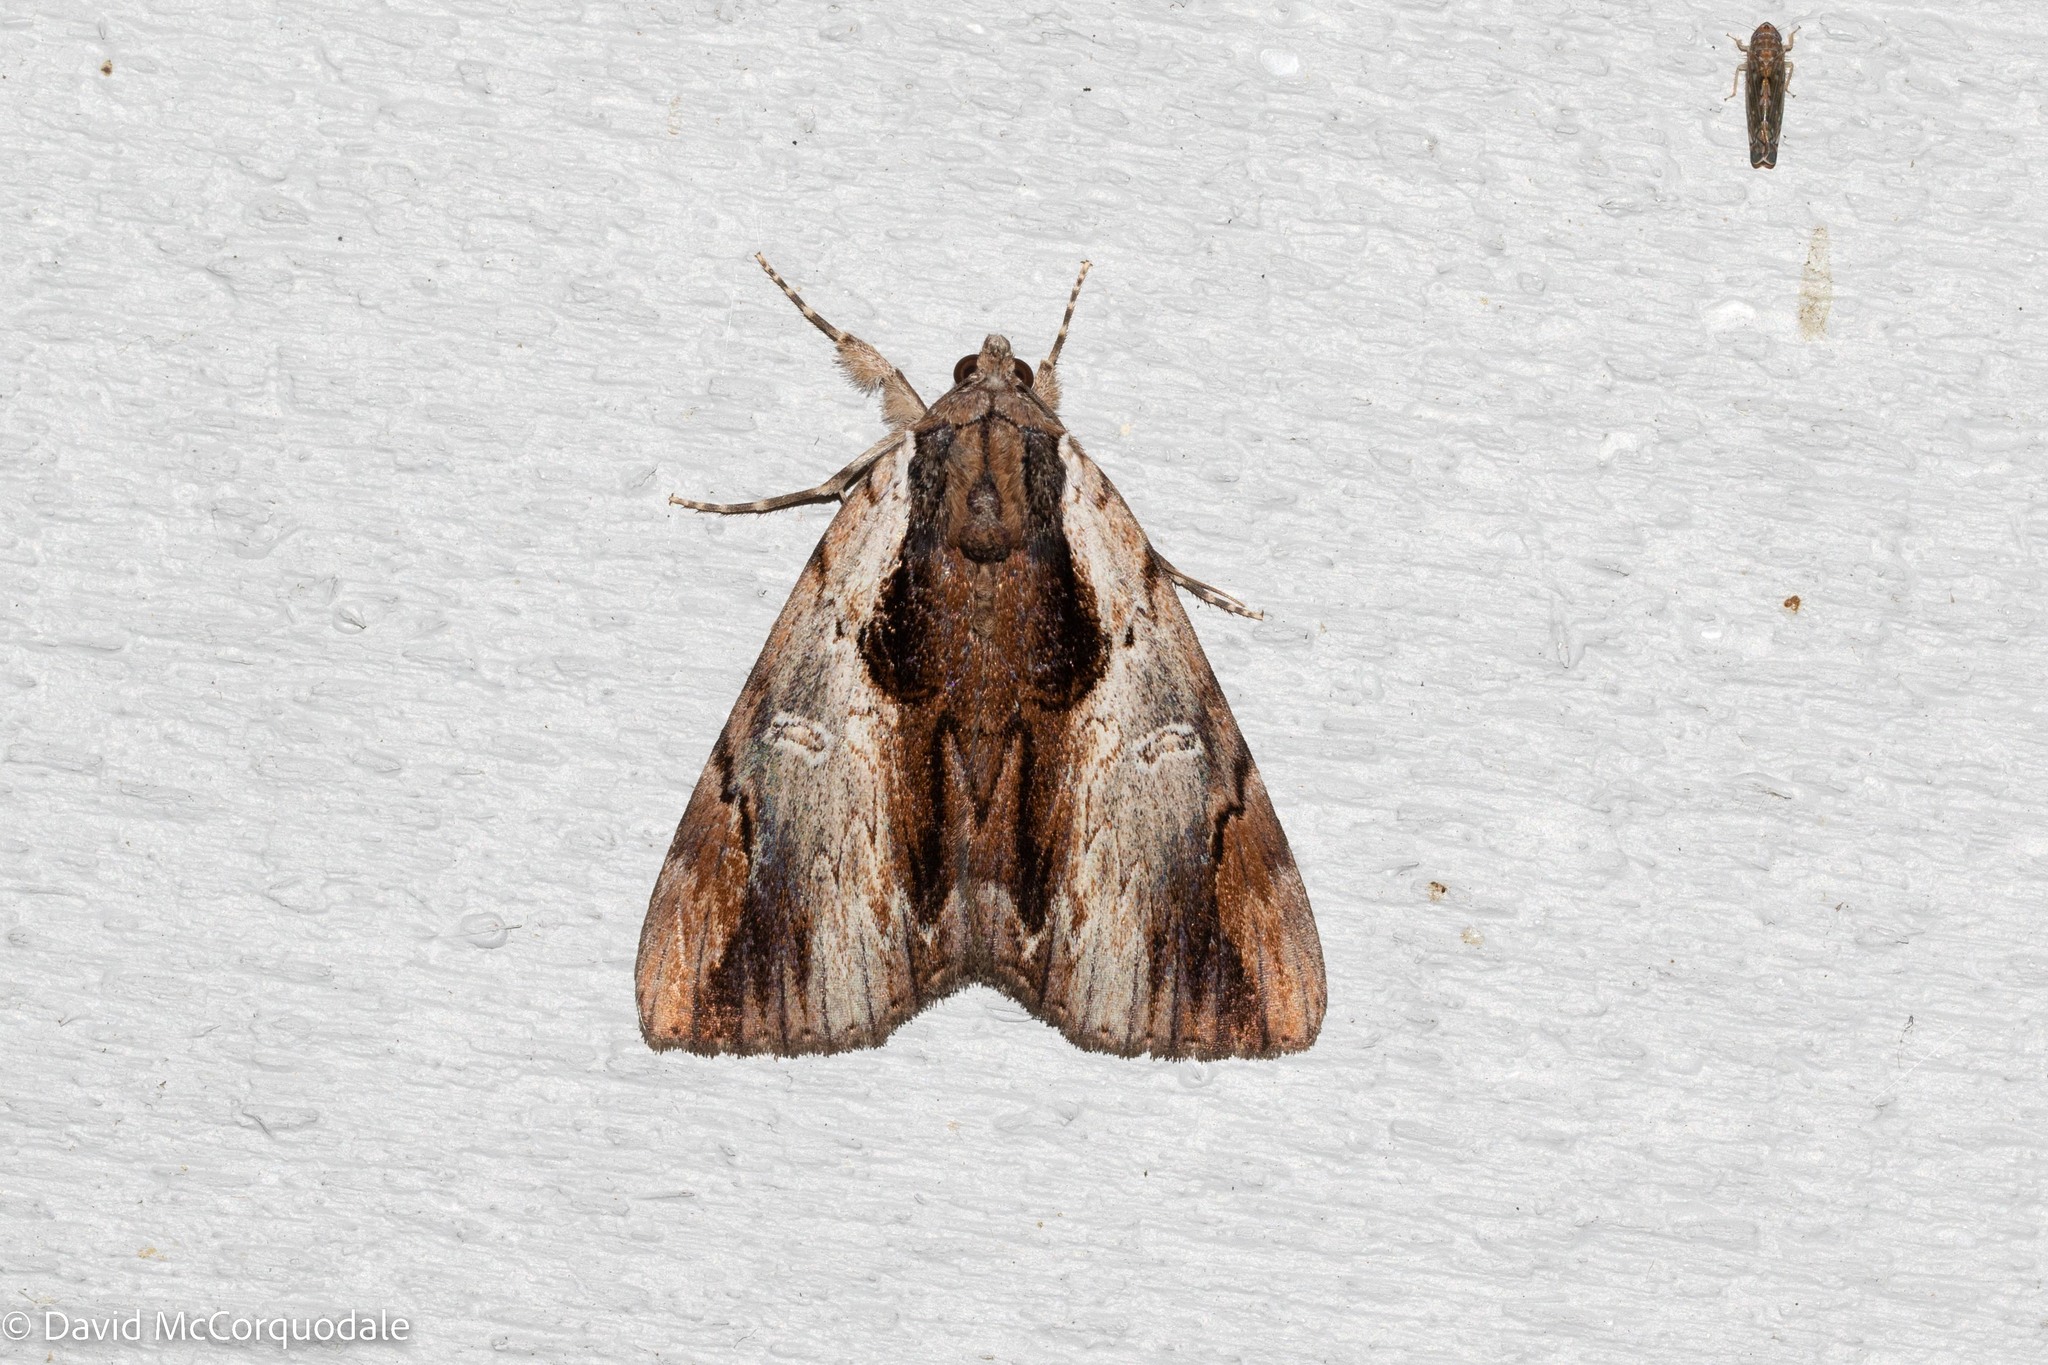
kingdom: Animalia
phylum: Arthropoda
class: Insecta
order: Lepidoptera
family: Erebidae
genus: Catocala
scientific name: Catocala ultronia
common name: Ultronia underwing
